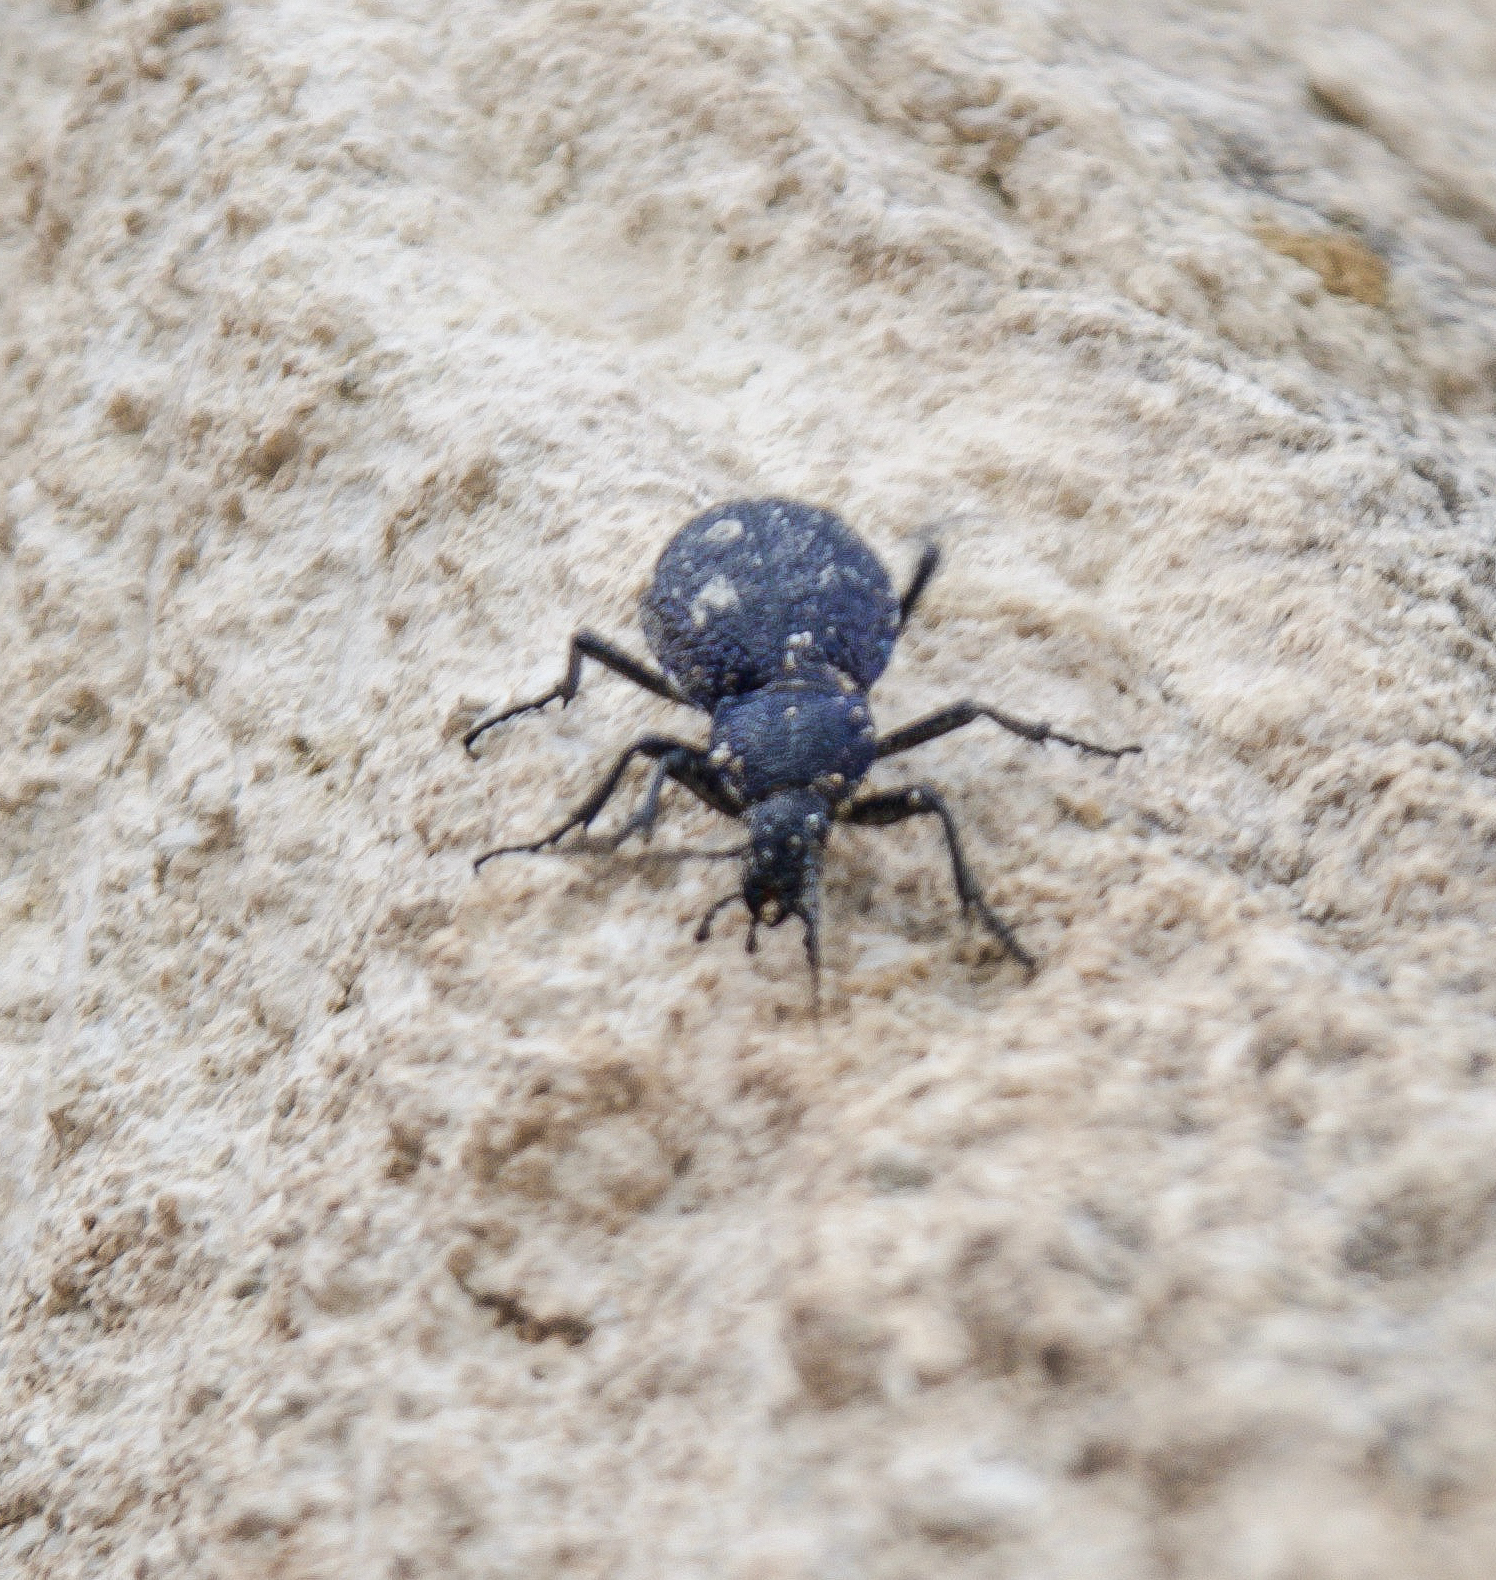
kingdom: Animalia
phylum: Arthropoda
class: Insecta
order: Coleoptera
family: Carabidae
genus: Carabus
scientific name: Carabus scabrosus
